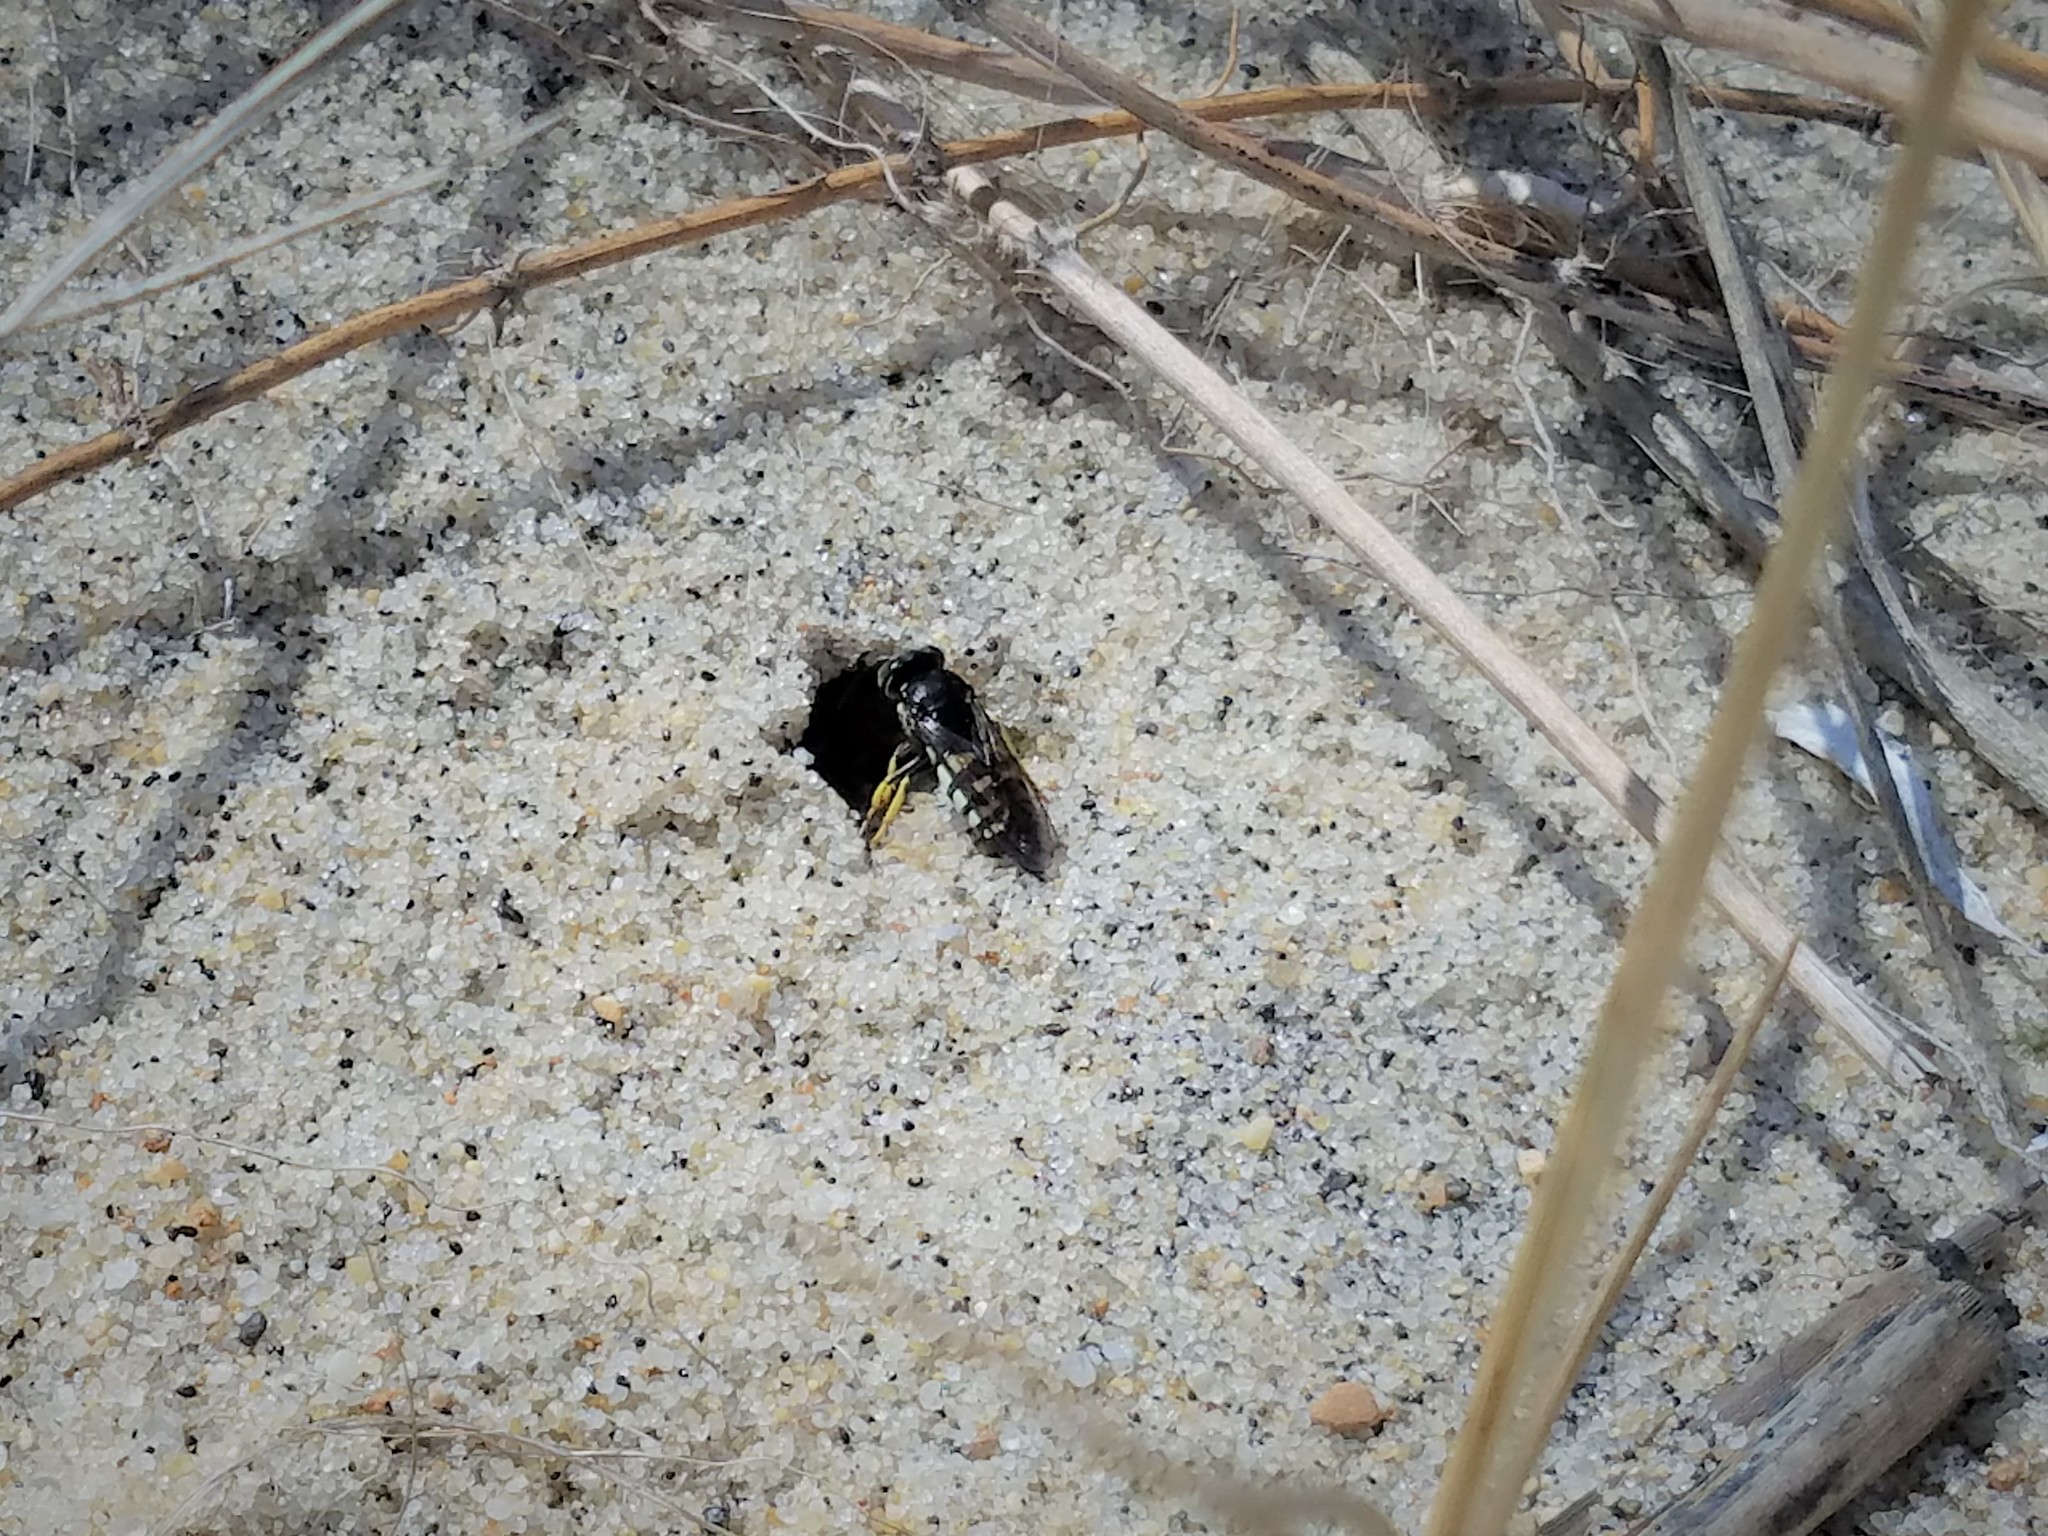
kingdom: Animalia
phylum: Arthropoda
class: Insecta
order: Hymenoptera
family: Crabronidae
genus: Bicyrtes
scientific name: Bicyrtes quadrifasciatus
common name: Four-banded stink bug hunter wasp
